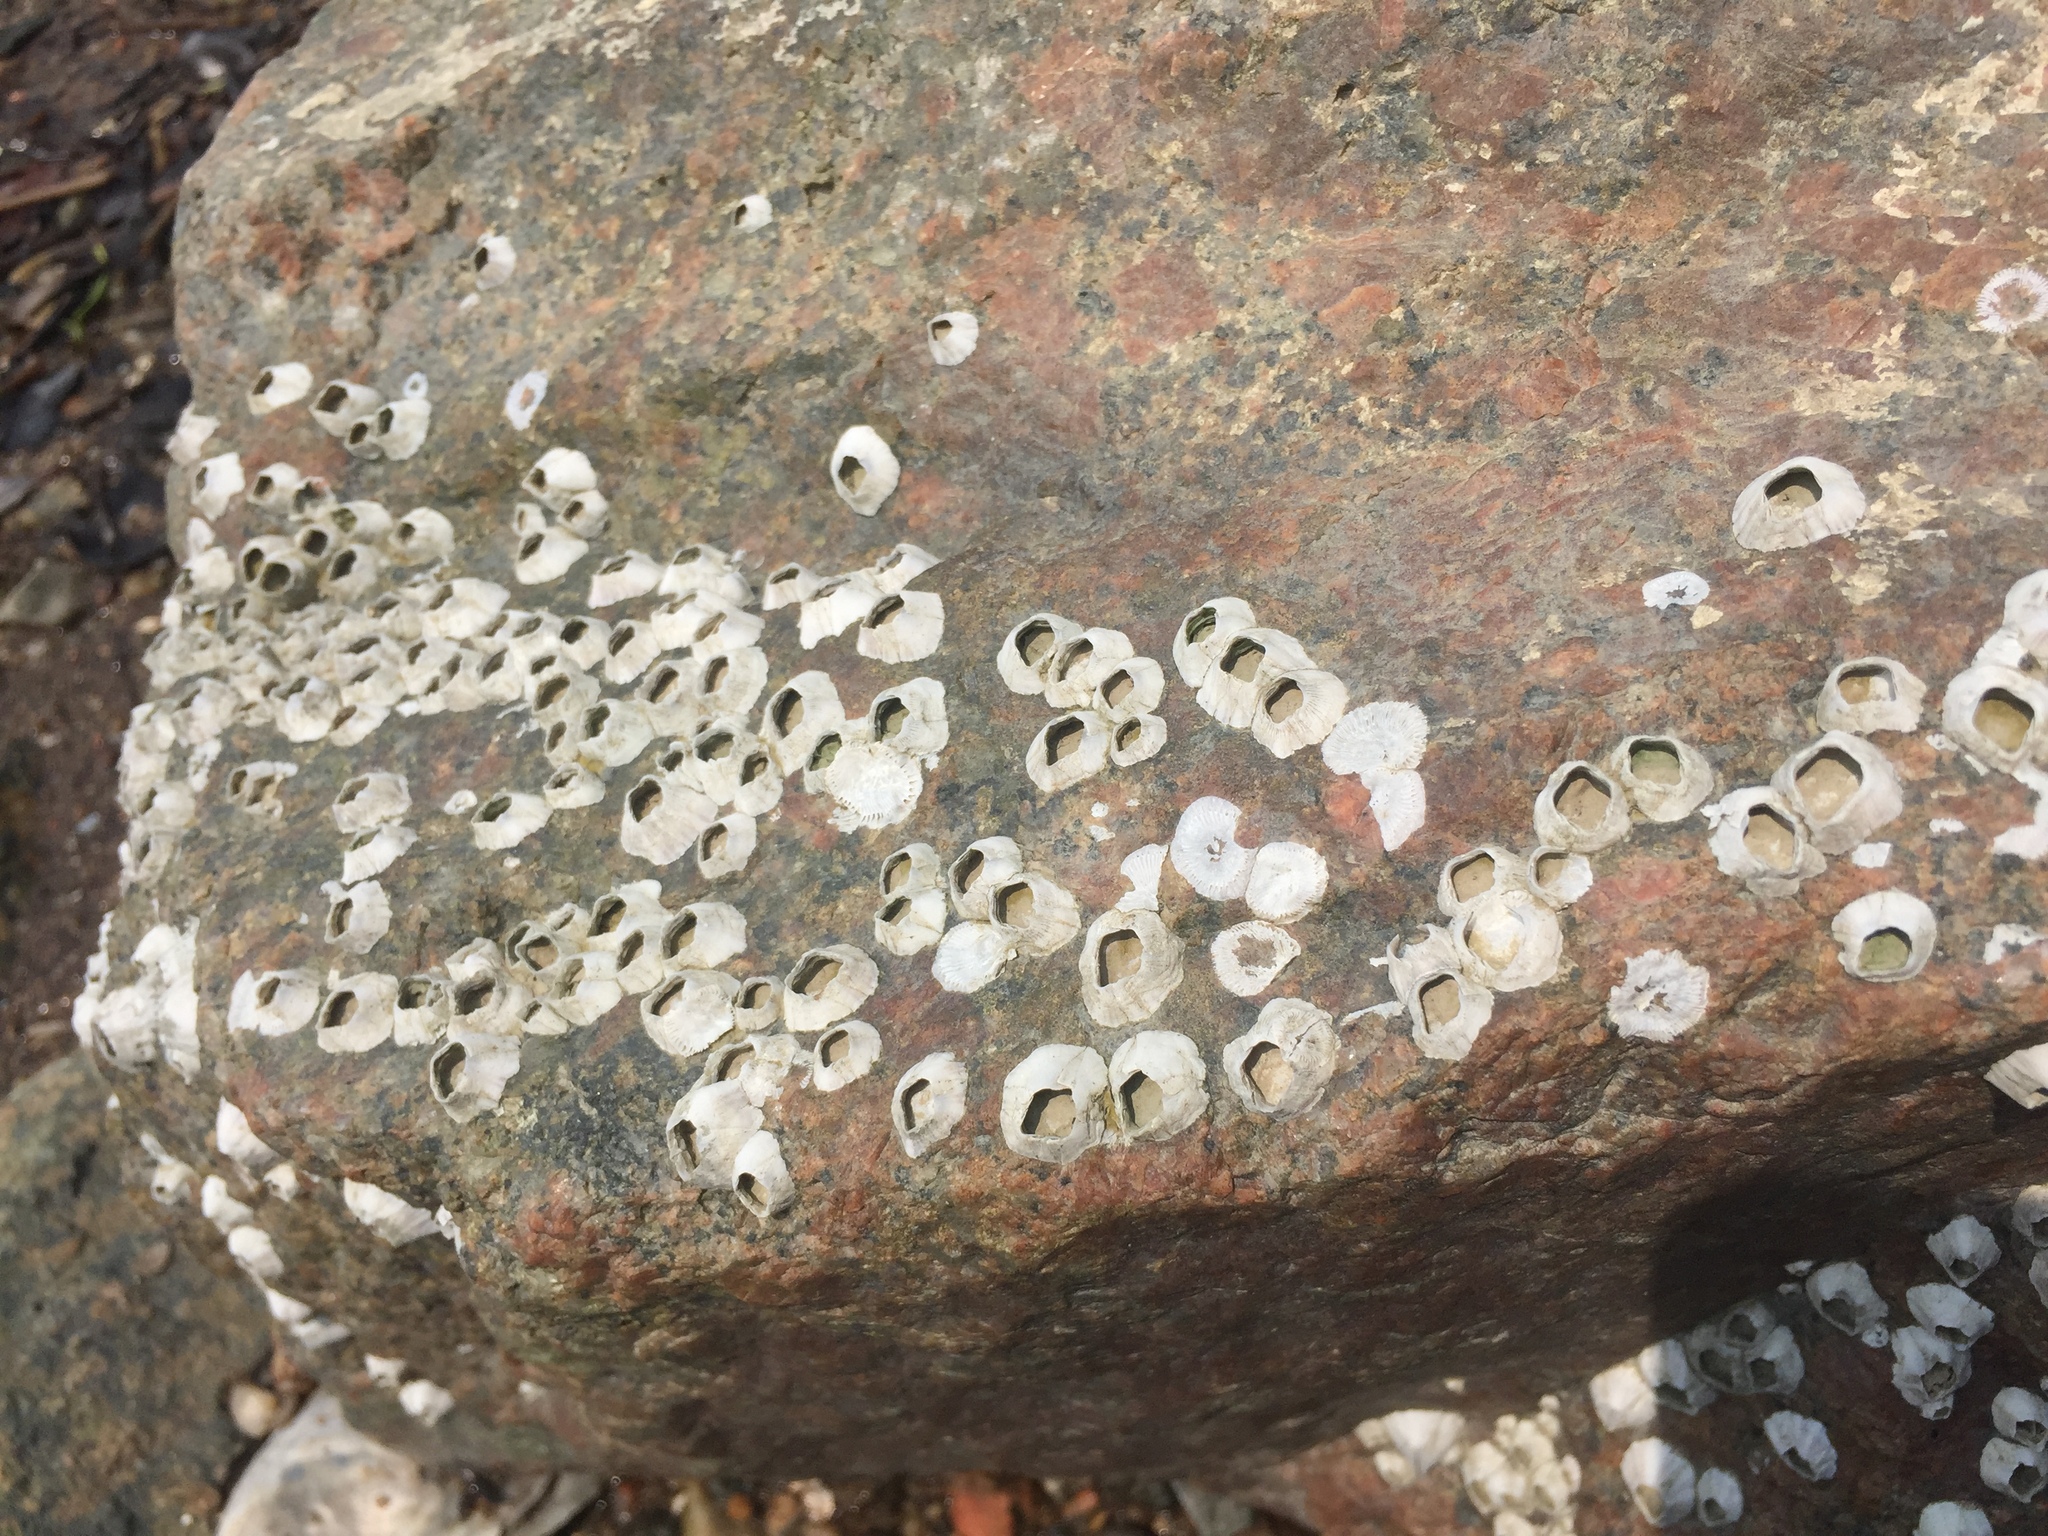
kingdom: Animalia
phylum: Arthropoda
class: Maxillopoda
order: Sessilia
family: Balanidae
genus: Amphibalanus
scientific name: Amphibalanus amphitrite
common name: Striped acorn barnacle
